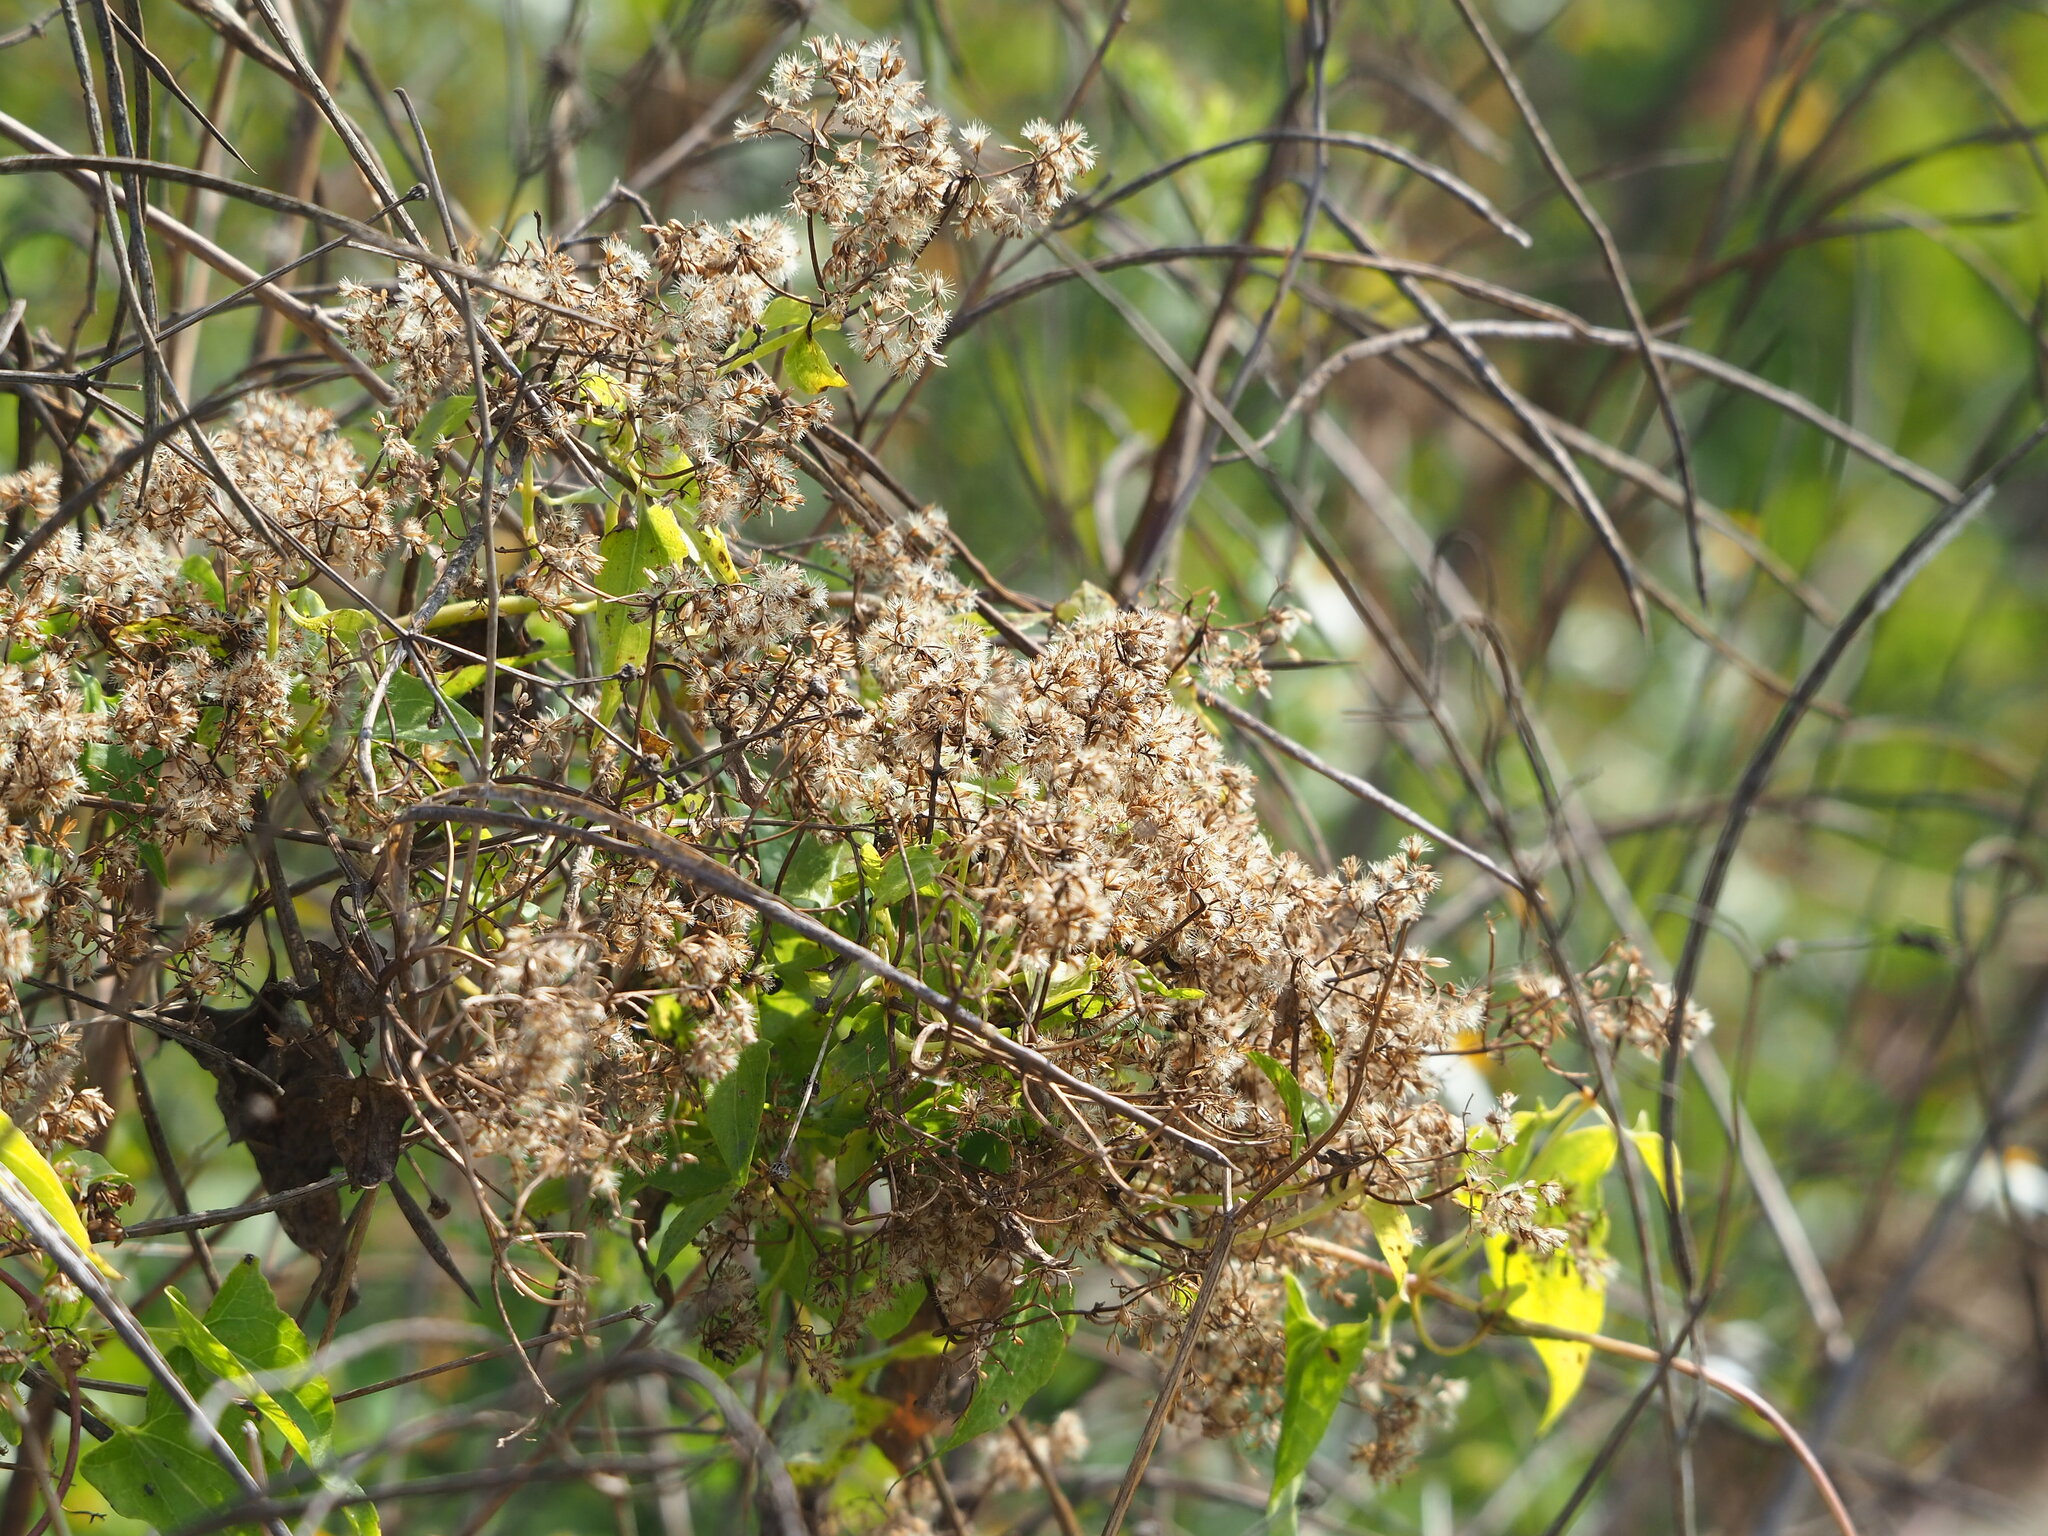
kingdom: Plantae
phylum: Tracheophyta
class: Magnoliopsida
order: Asterales
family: Asteraceae
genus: Mikania
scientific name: Mikania micrantha
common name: Mile-a-minute
